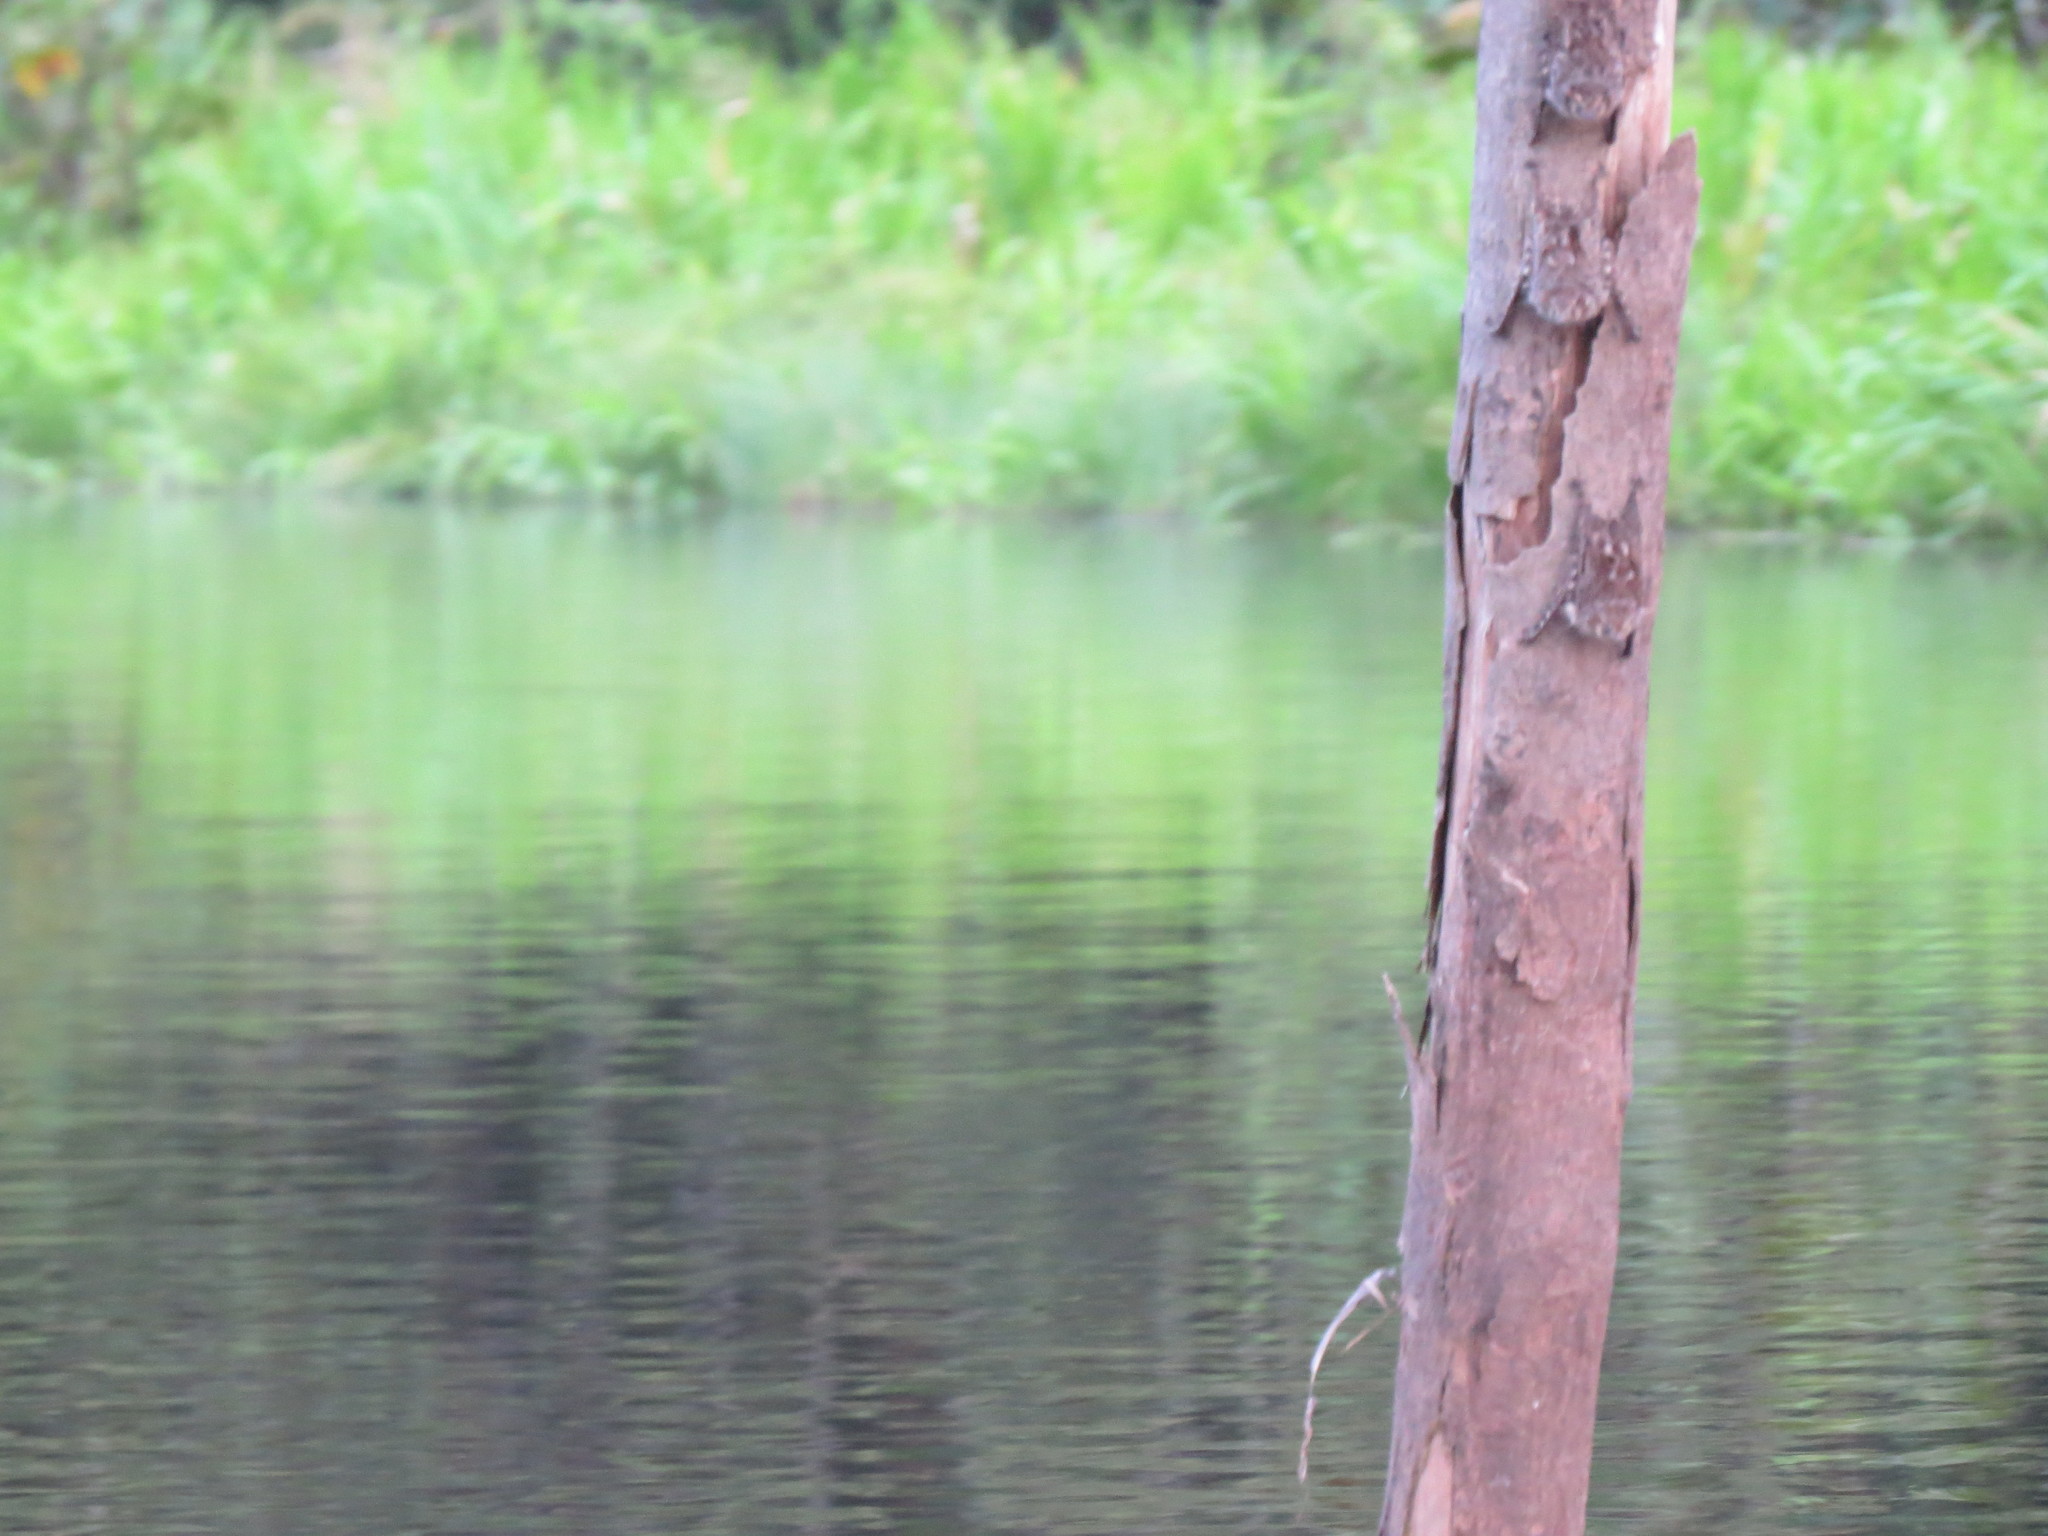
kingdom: Animalia
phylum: Chordata
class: Mammalia
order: Chiroptera
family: Emballonuridae
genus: Rhynchonycteris
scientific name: Rhynchonycteris naso
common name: Proboscis bat
